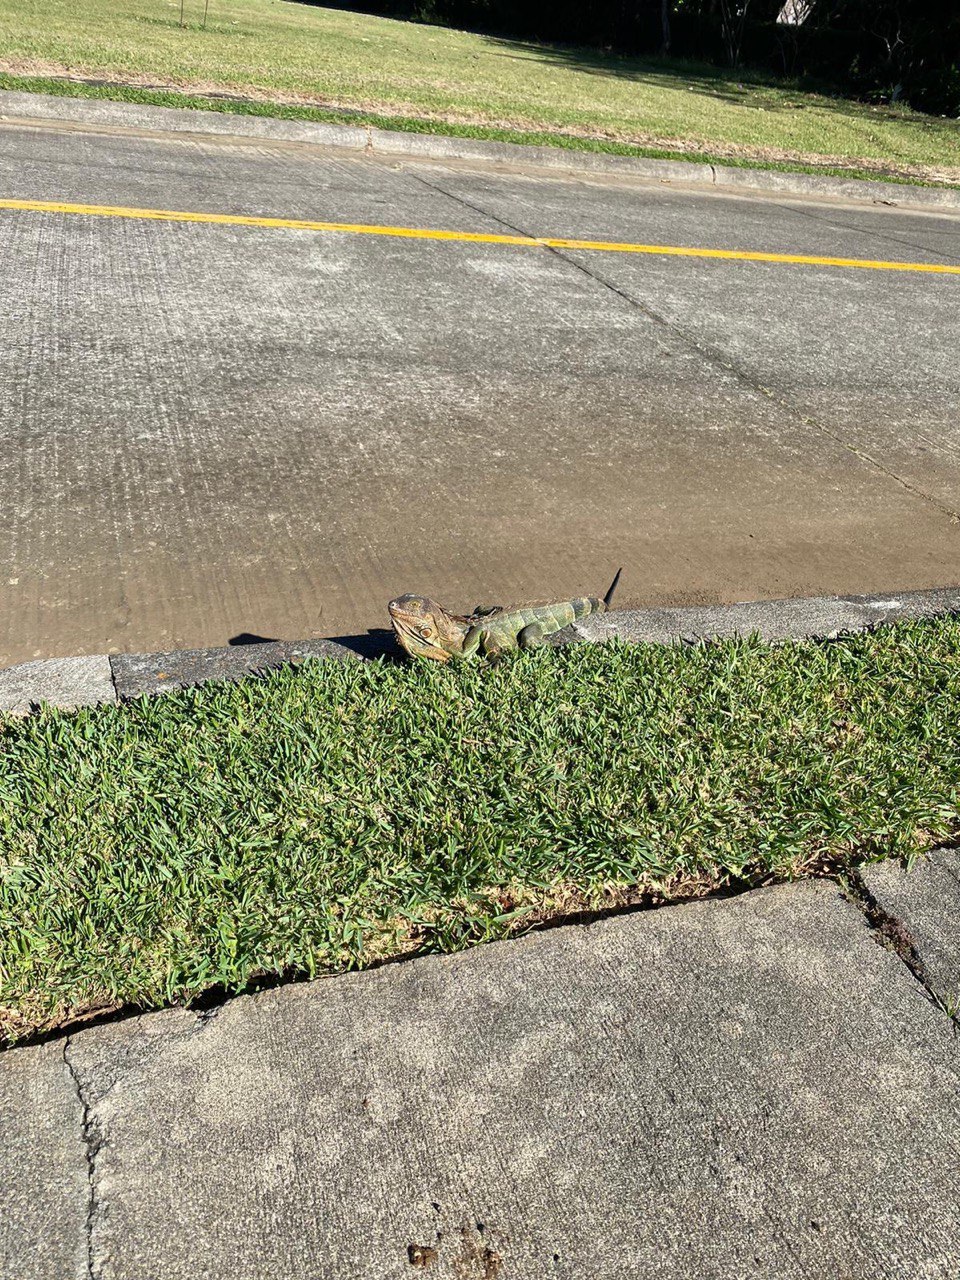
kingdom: Animalia
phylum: Chordata
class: Squamata
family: Iguanidae
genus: Iguana
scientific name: Iguana iguana
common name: Green iguana
